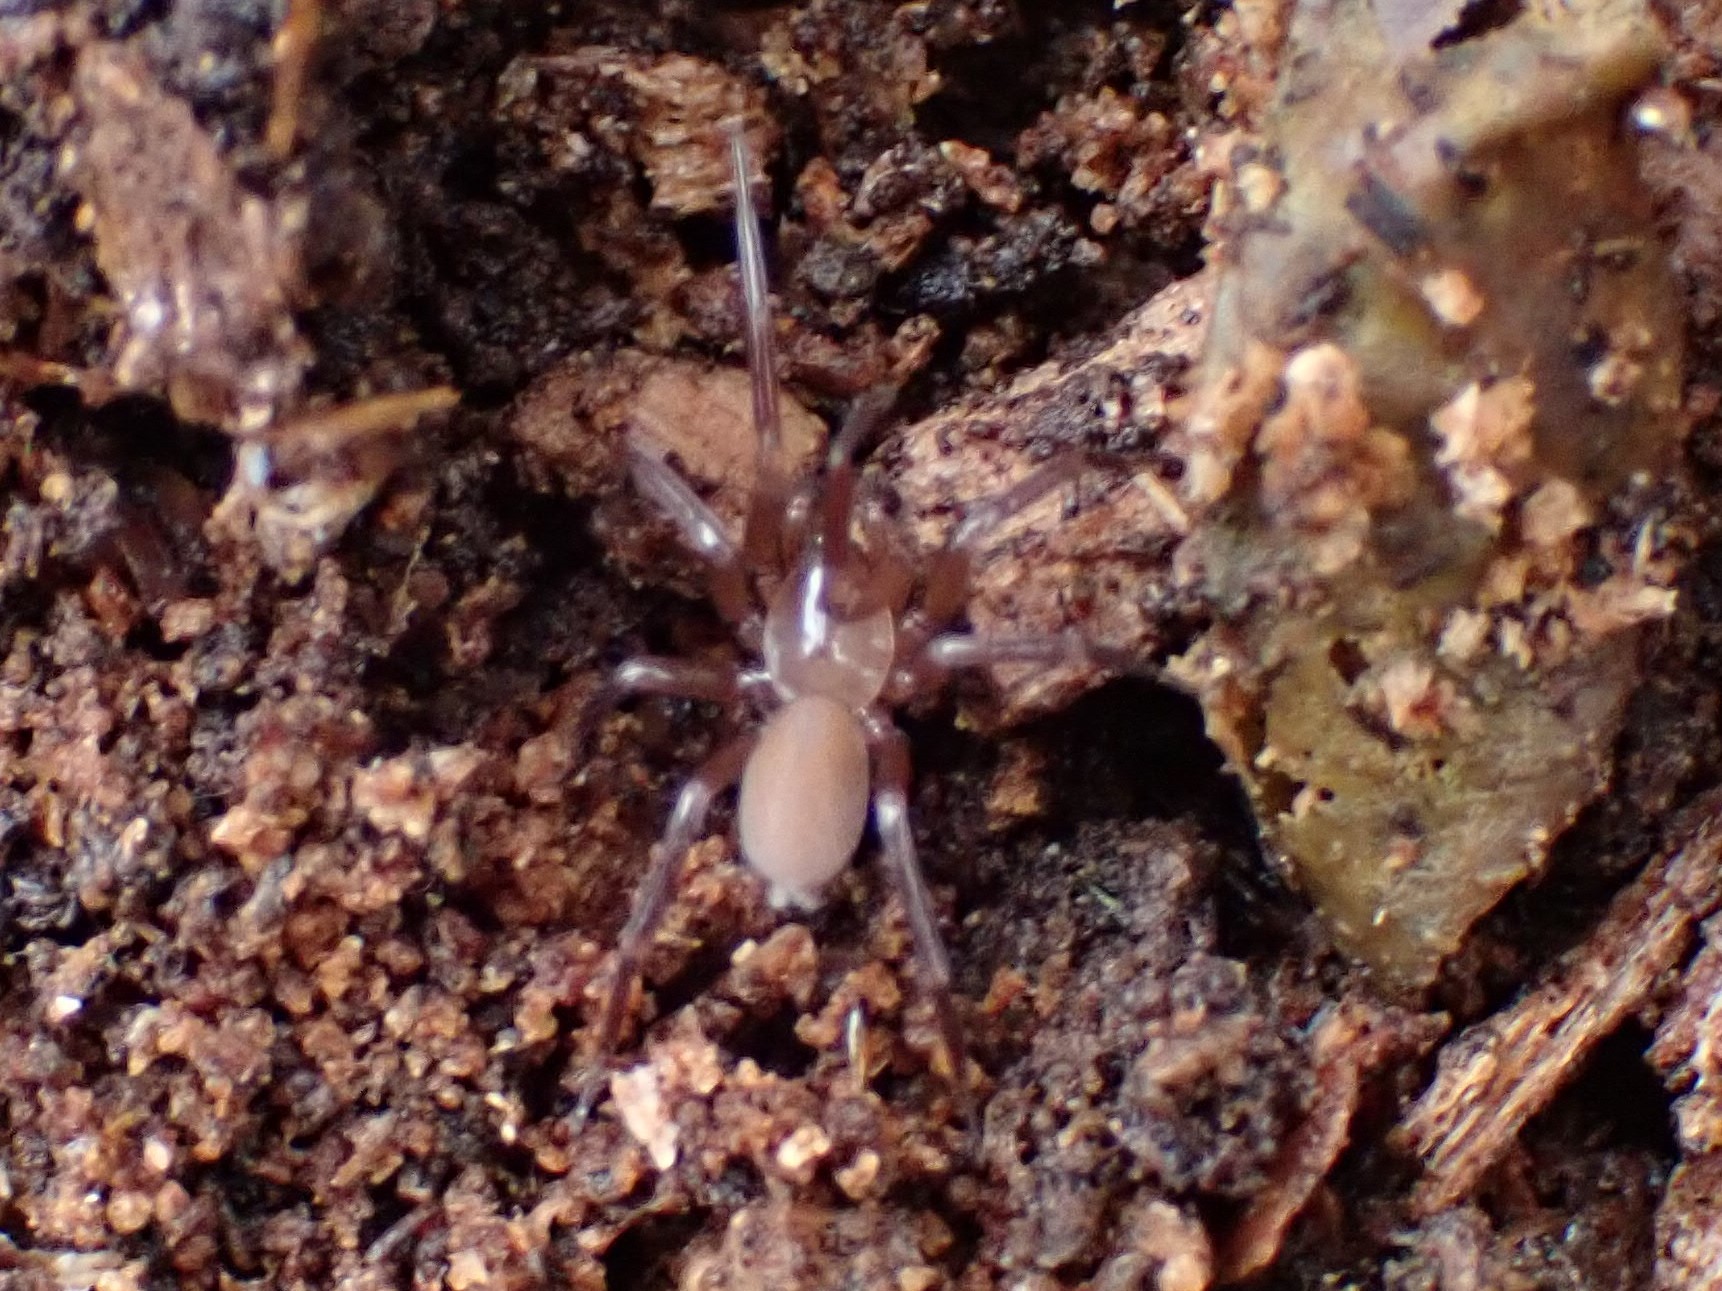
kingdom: Animalia
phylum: Arthropoda
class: Arachnida
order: Araneae
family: Dysderidae
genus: Dysdera
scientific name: Dysdera crocata
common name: Woodlouse spider
